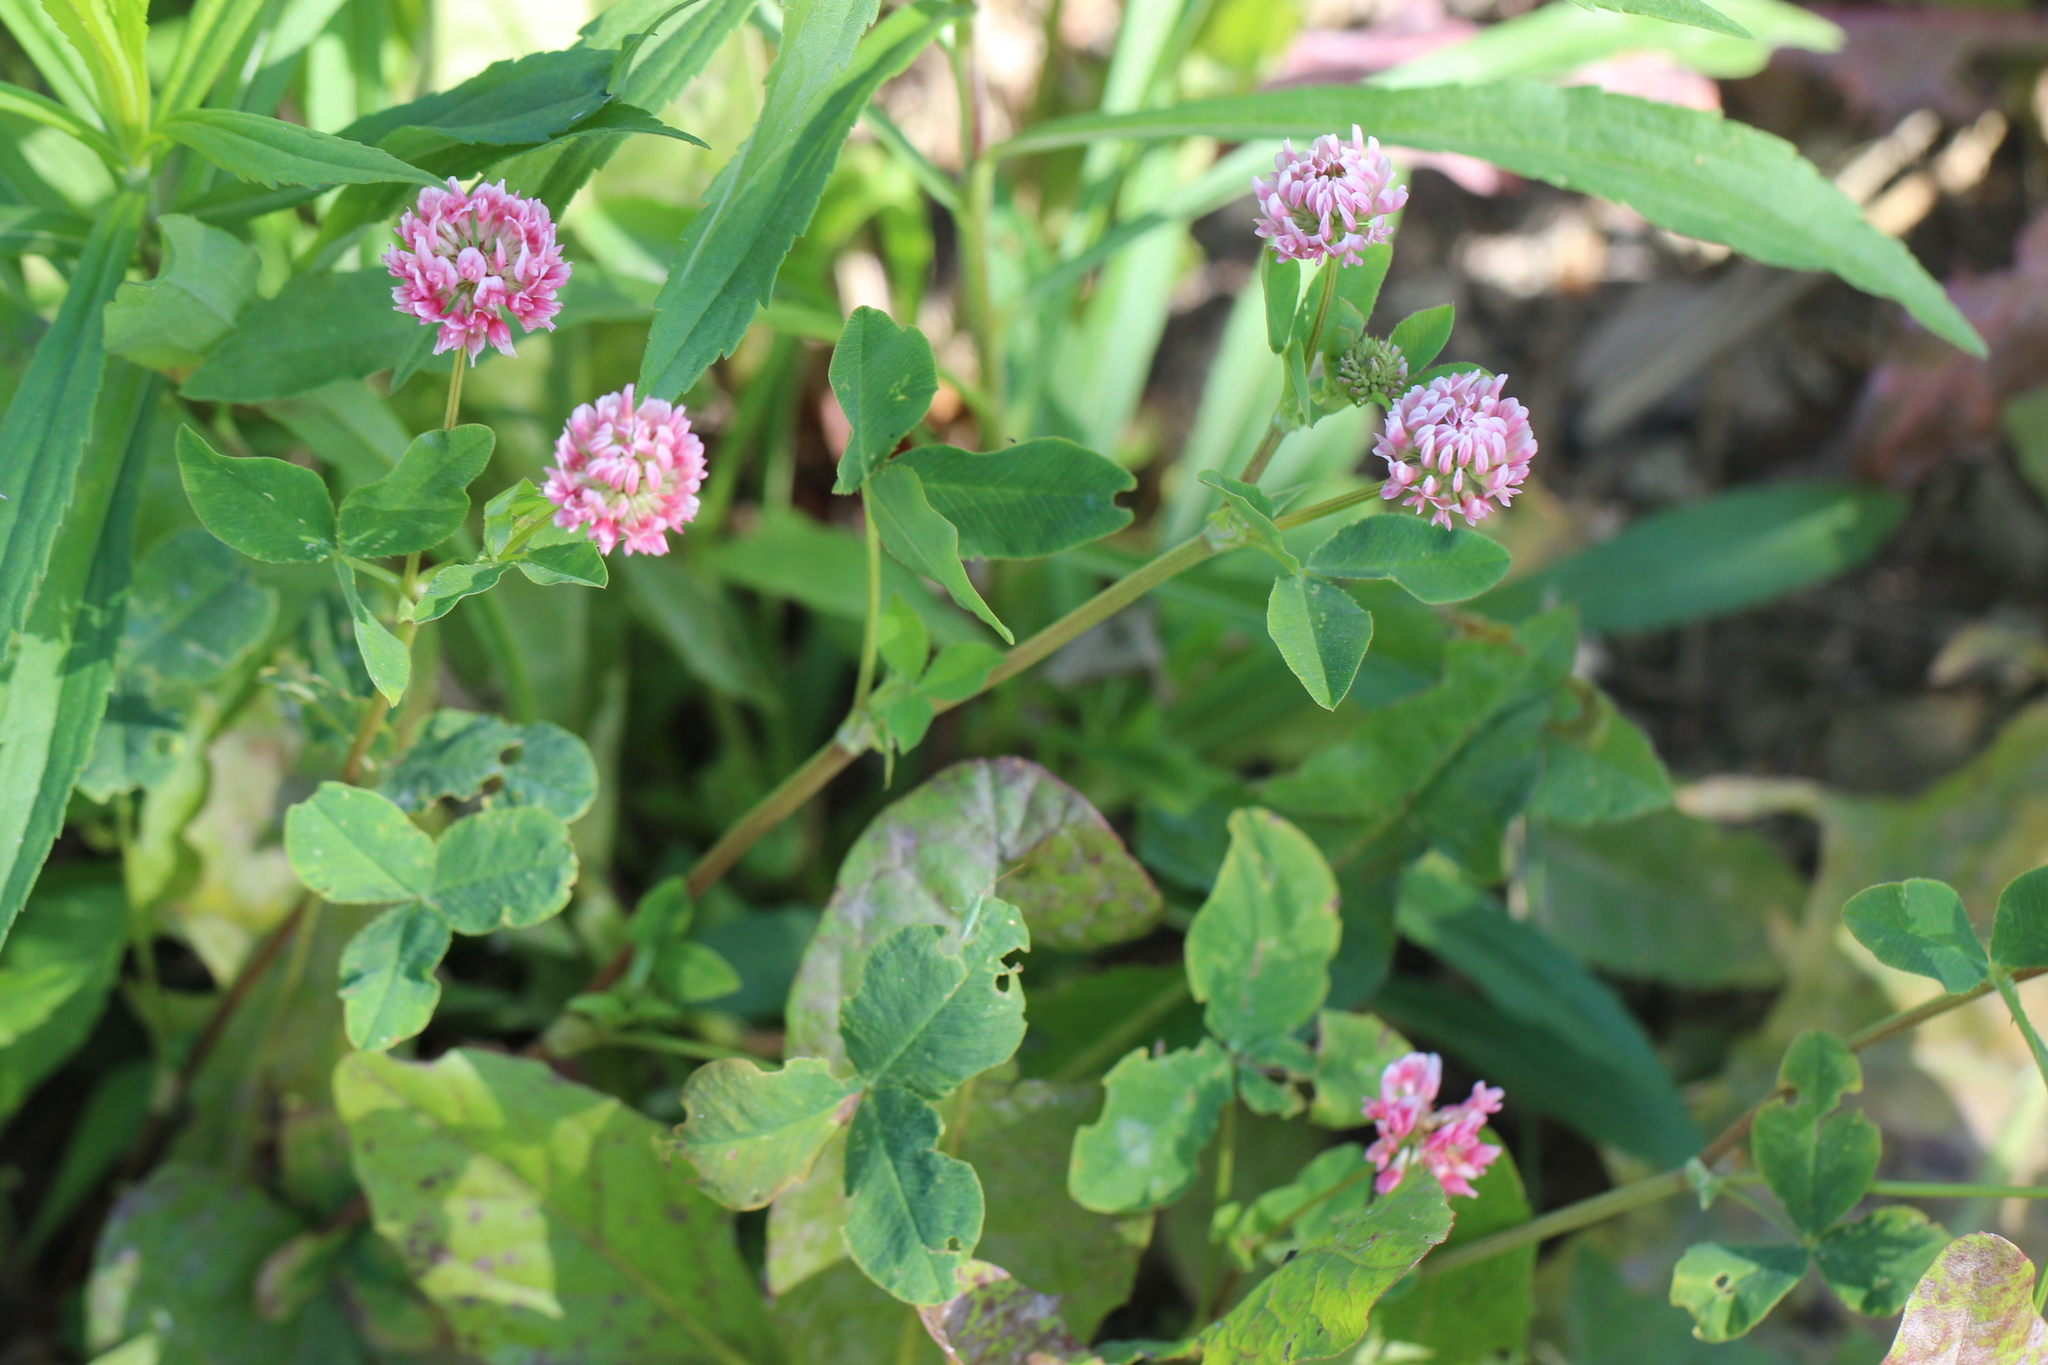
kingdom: Plantae
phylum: Tracheophyta
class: Magnoliopsida
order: Fabales
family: Fabaceae
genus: Trifolium
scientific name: Trifolium hybridum
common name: Alsike clover
